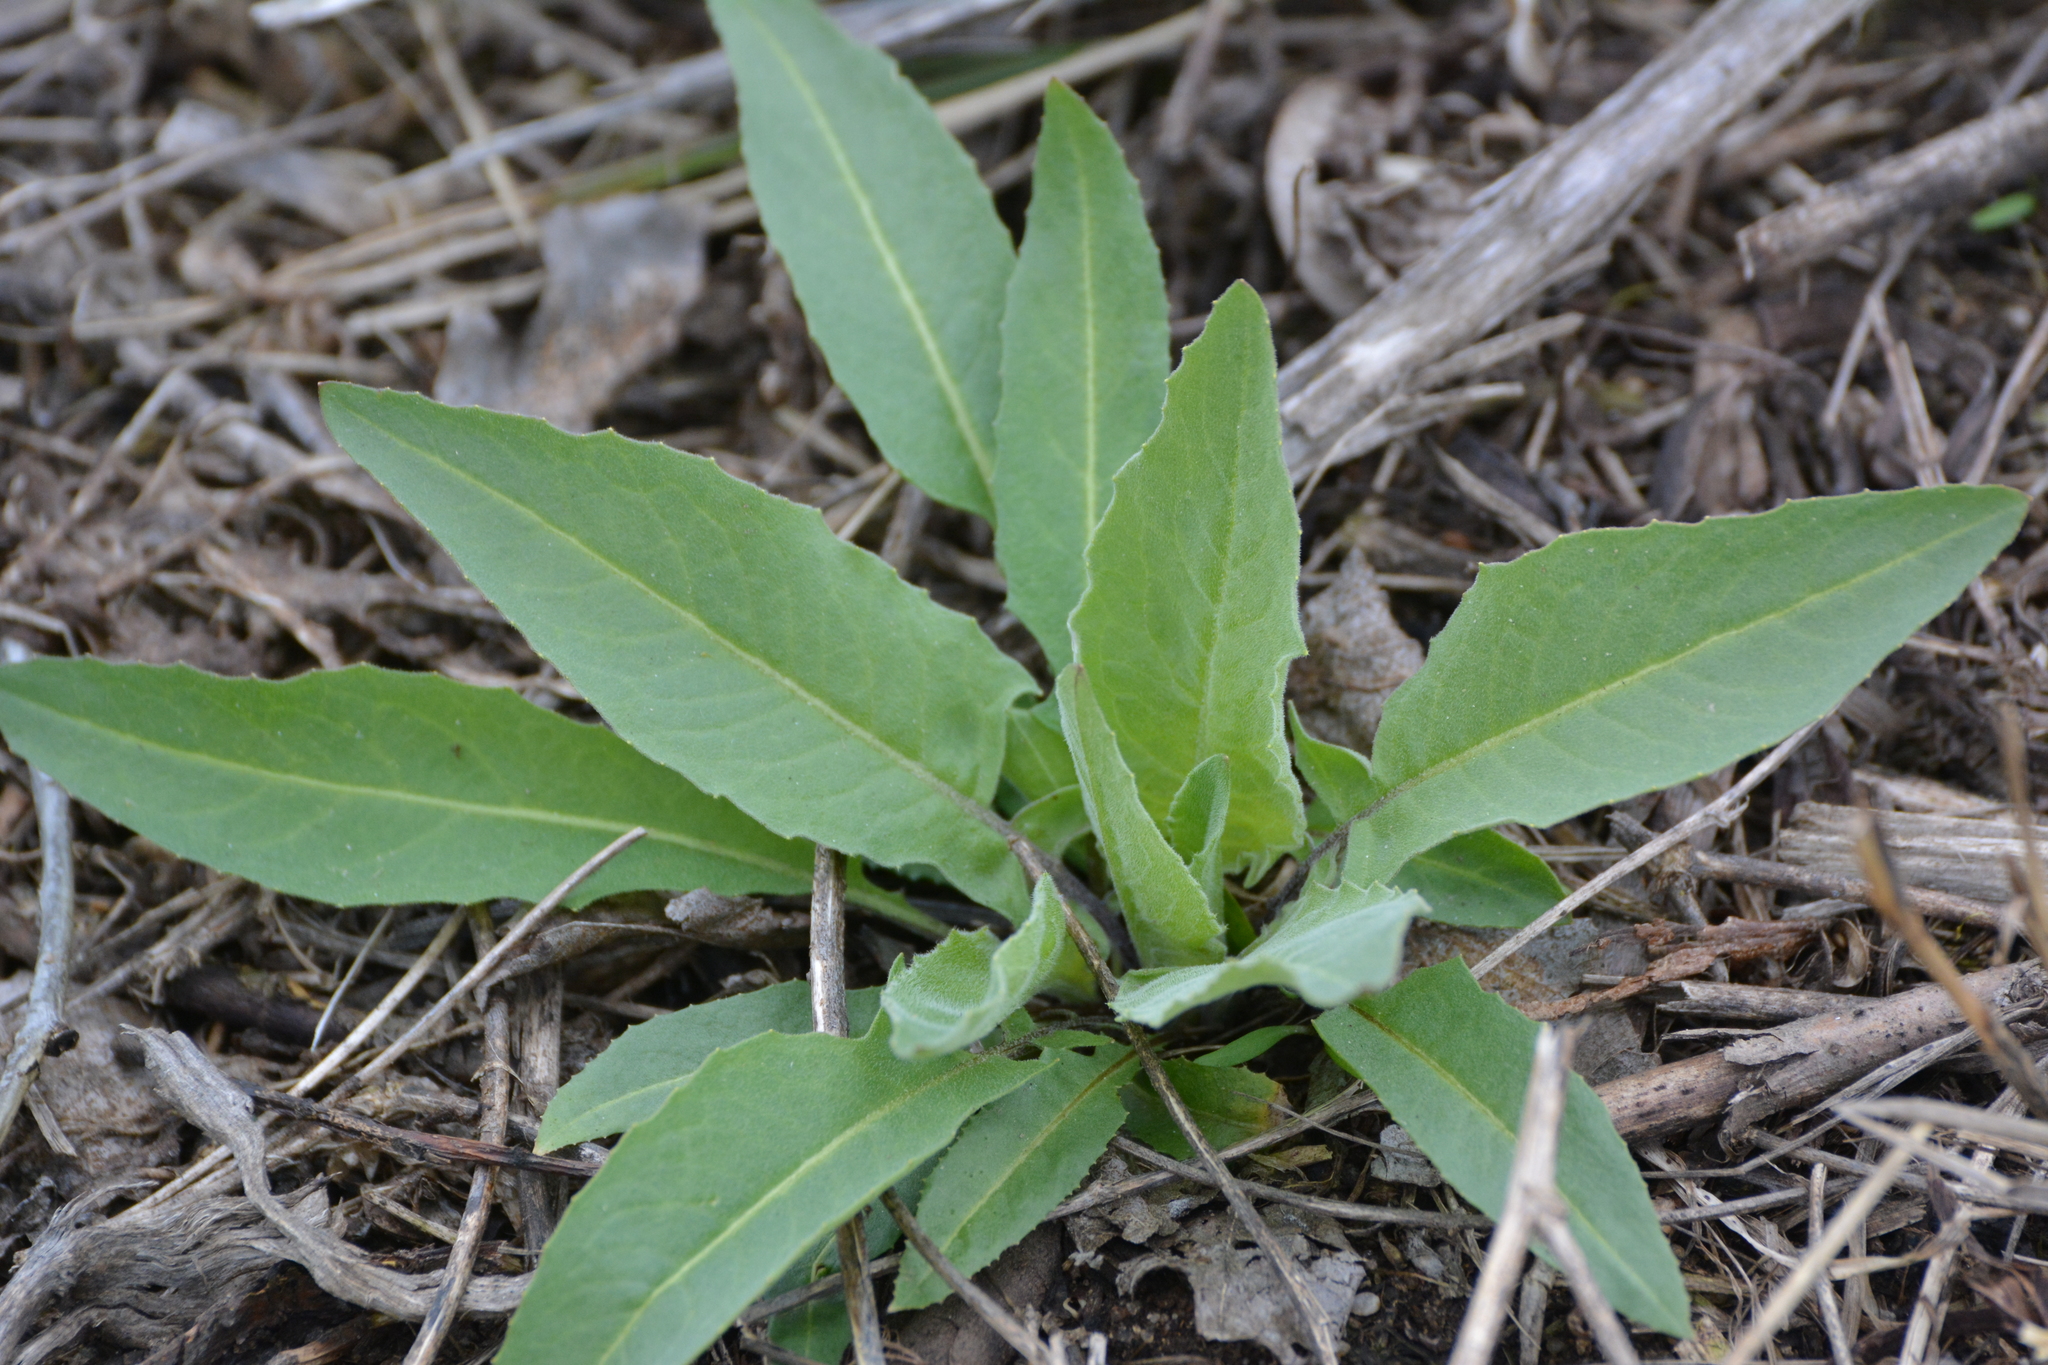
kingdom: Plantae
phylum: Tracheophyta
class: Magnoliopsida
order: Brassicales
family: Brassicaceae
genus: Bunias
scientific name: Bunias orientalis
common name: Warty-cabbage
